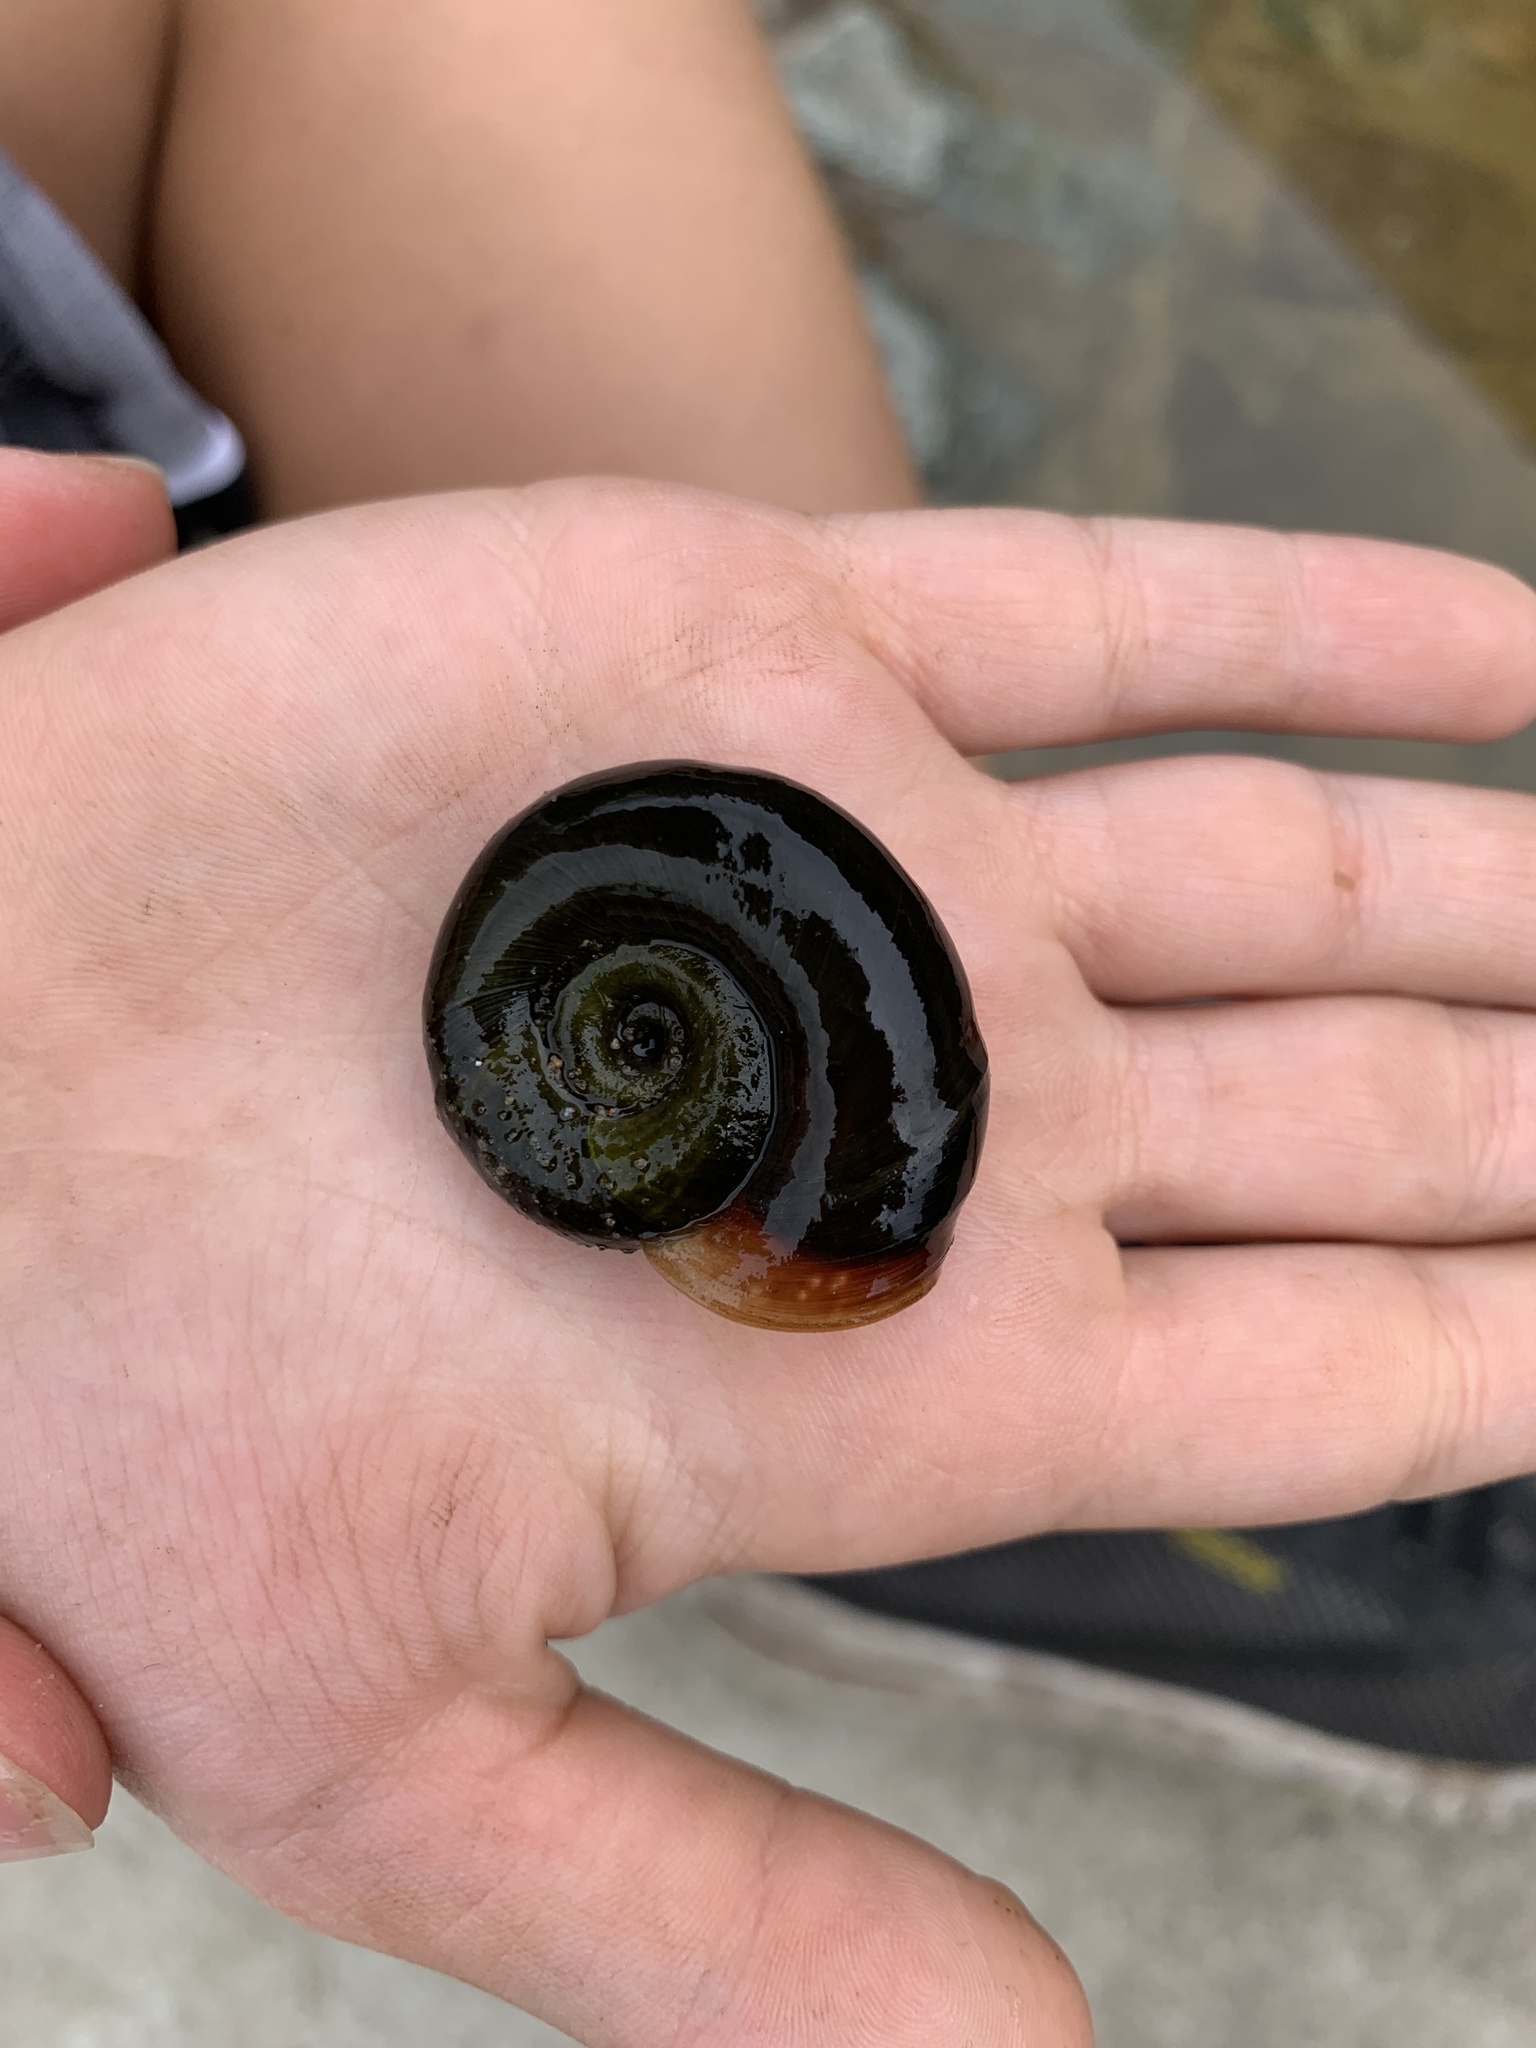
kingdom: Animalia
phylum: Mollusca
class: Gastropoda
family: Planorbidae
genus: Planorbarius
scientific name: Planorbarius corneus
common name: Great ramshorn
